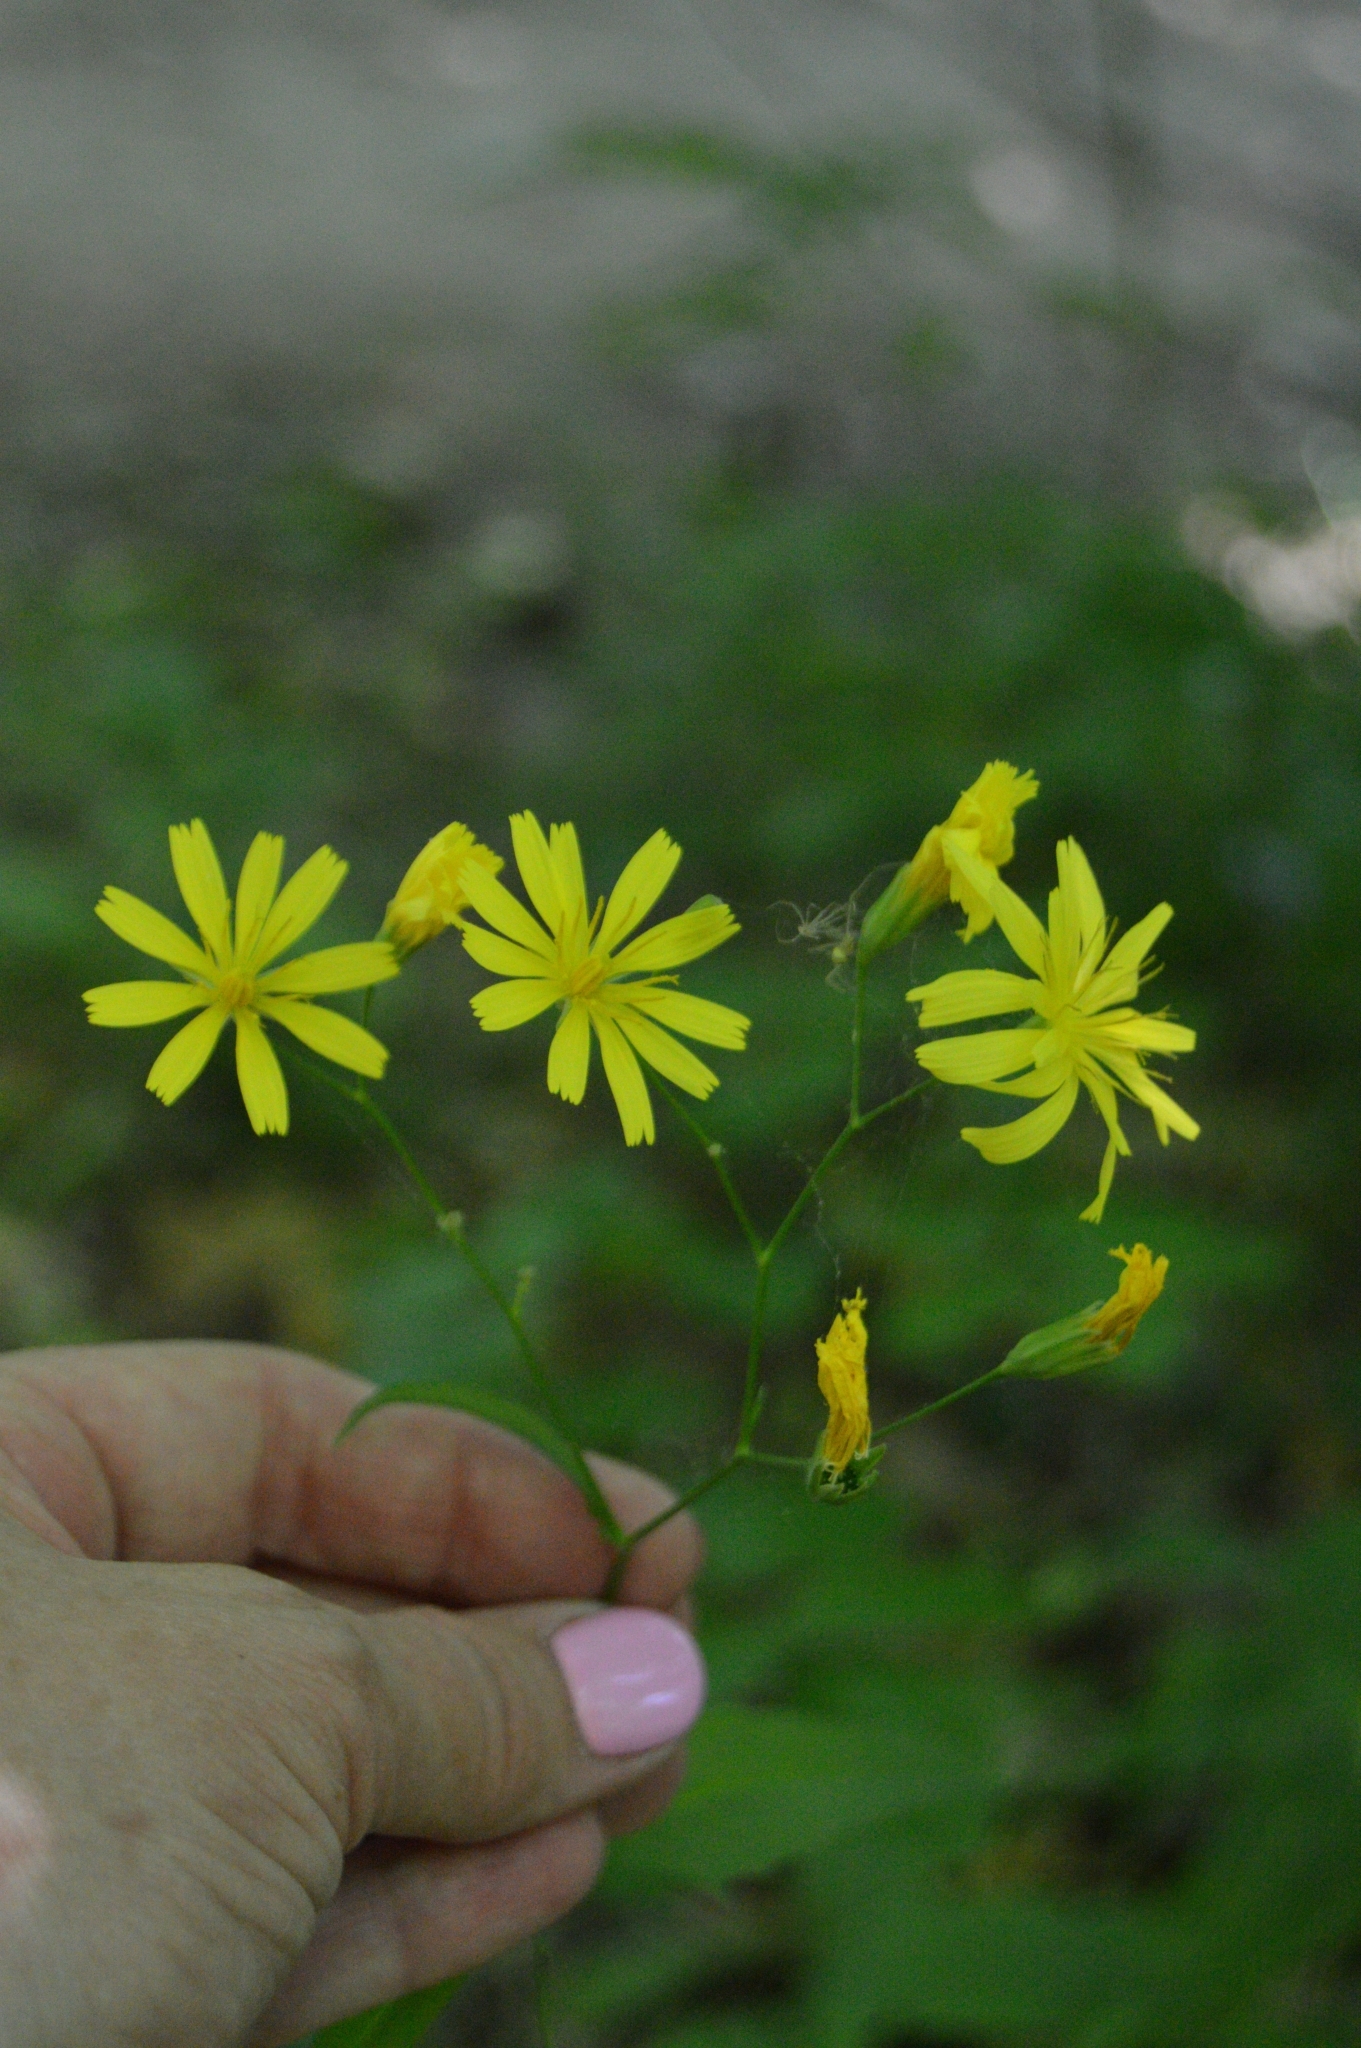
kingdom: Plantae
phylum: Tracheophyta
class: Magnoliopsida
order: Asterales
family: Asteraceae
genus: Lapsana
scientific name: Lapsana communis
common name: Nipplewort
